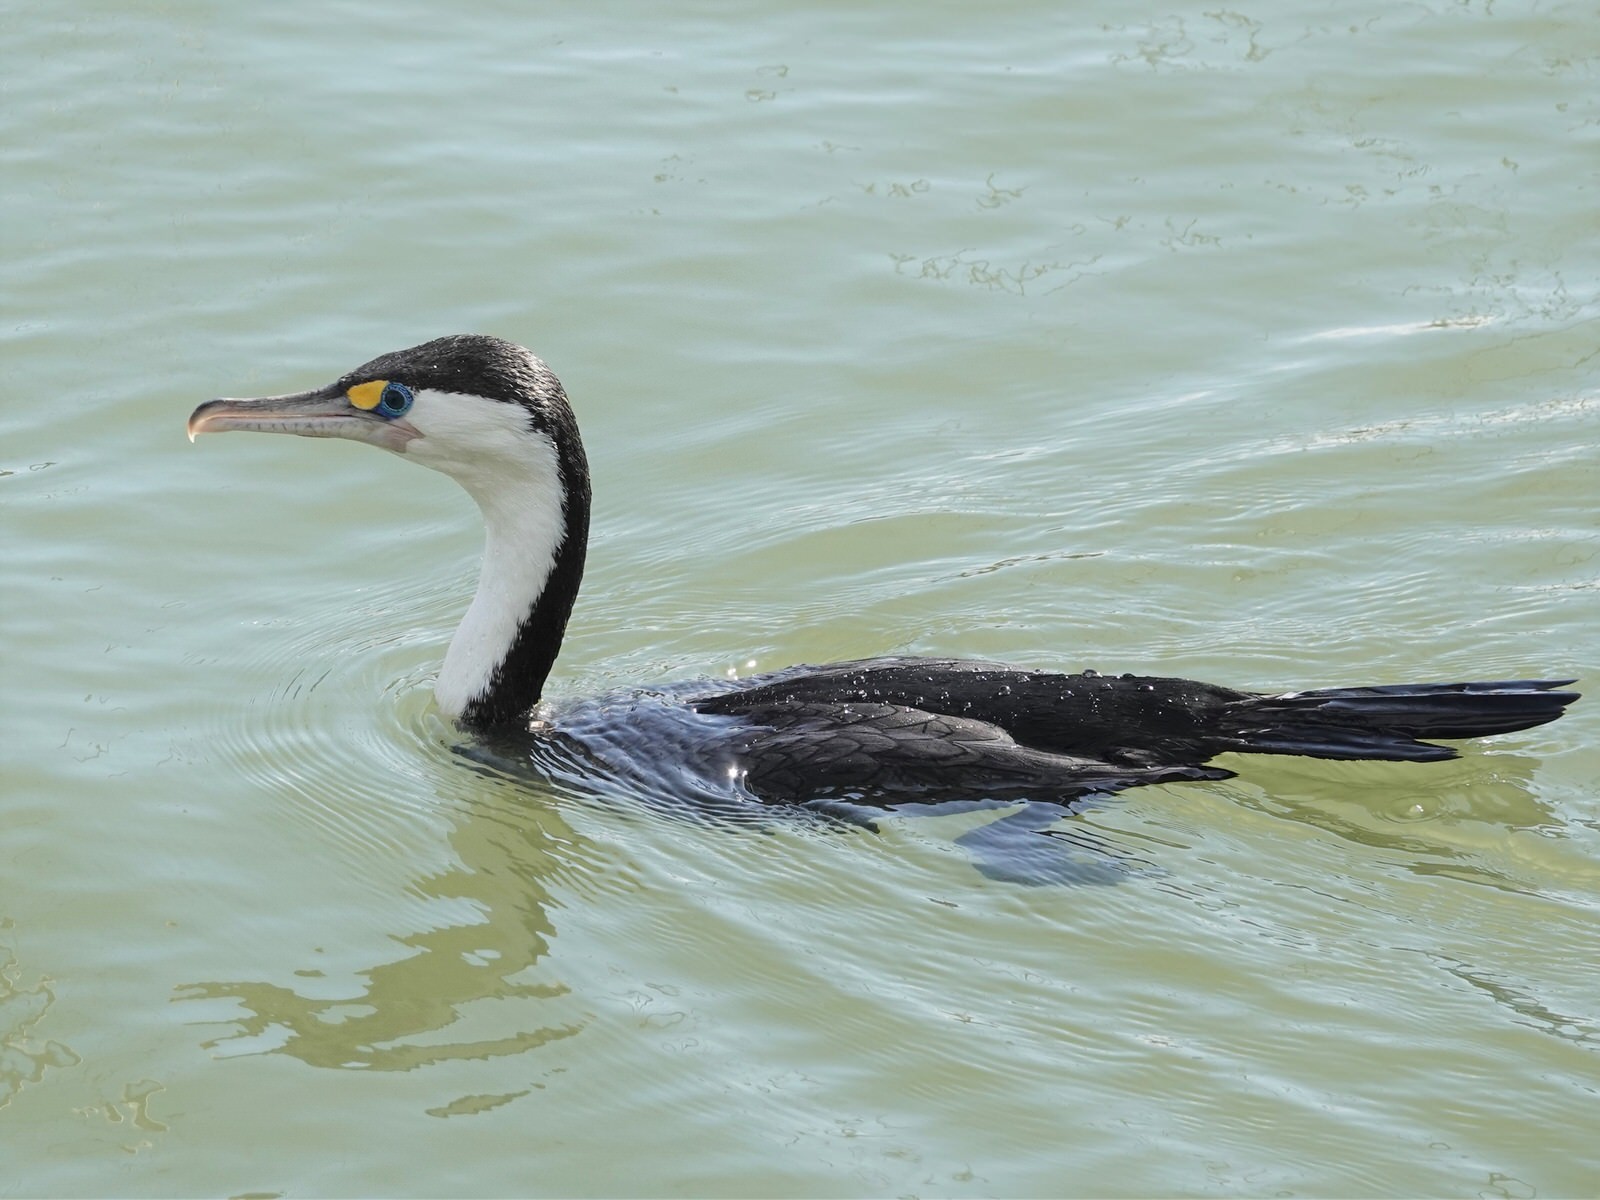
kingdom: Animalia
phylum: Chordata
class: Aves
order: Suliformes
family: Phalacrocoracidae
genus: Phalacrocorax
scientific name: Phalacrocorax varius
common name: Pied cormorant
